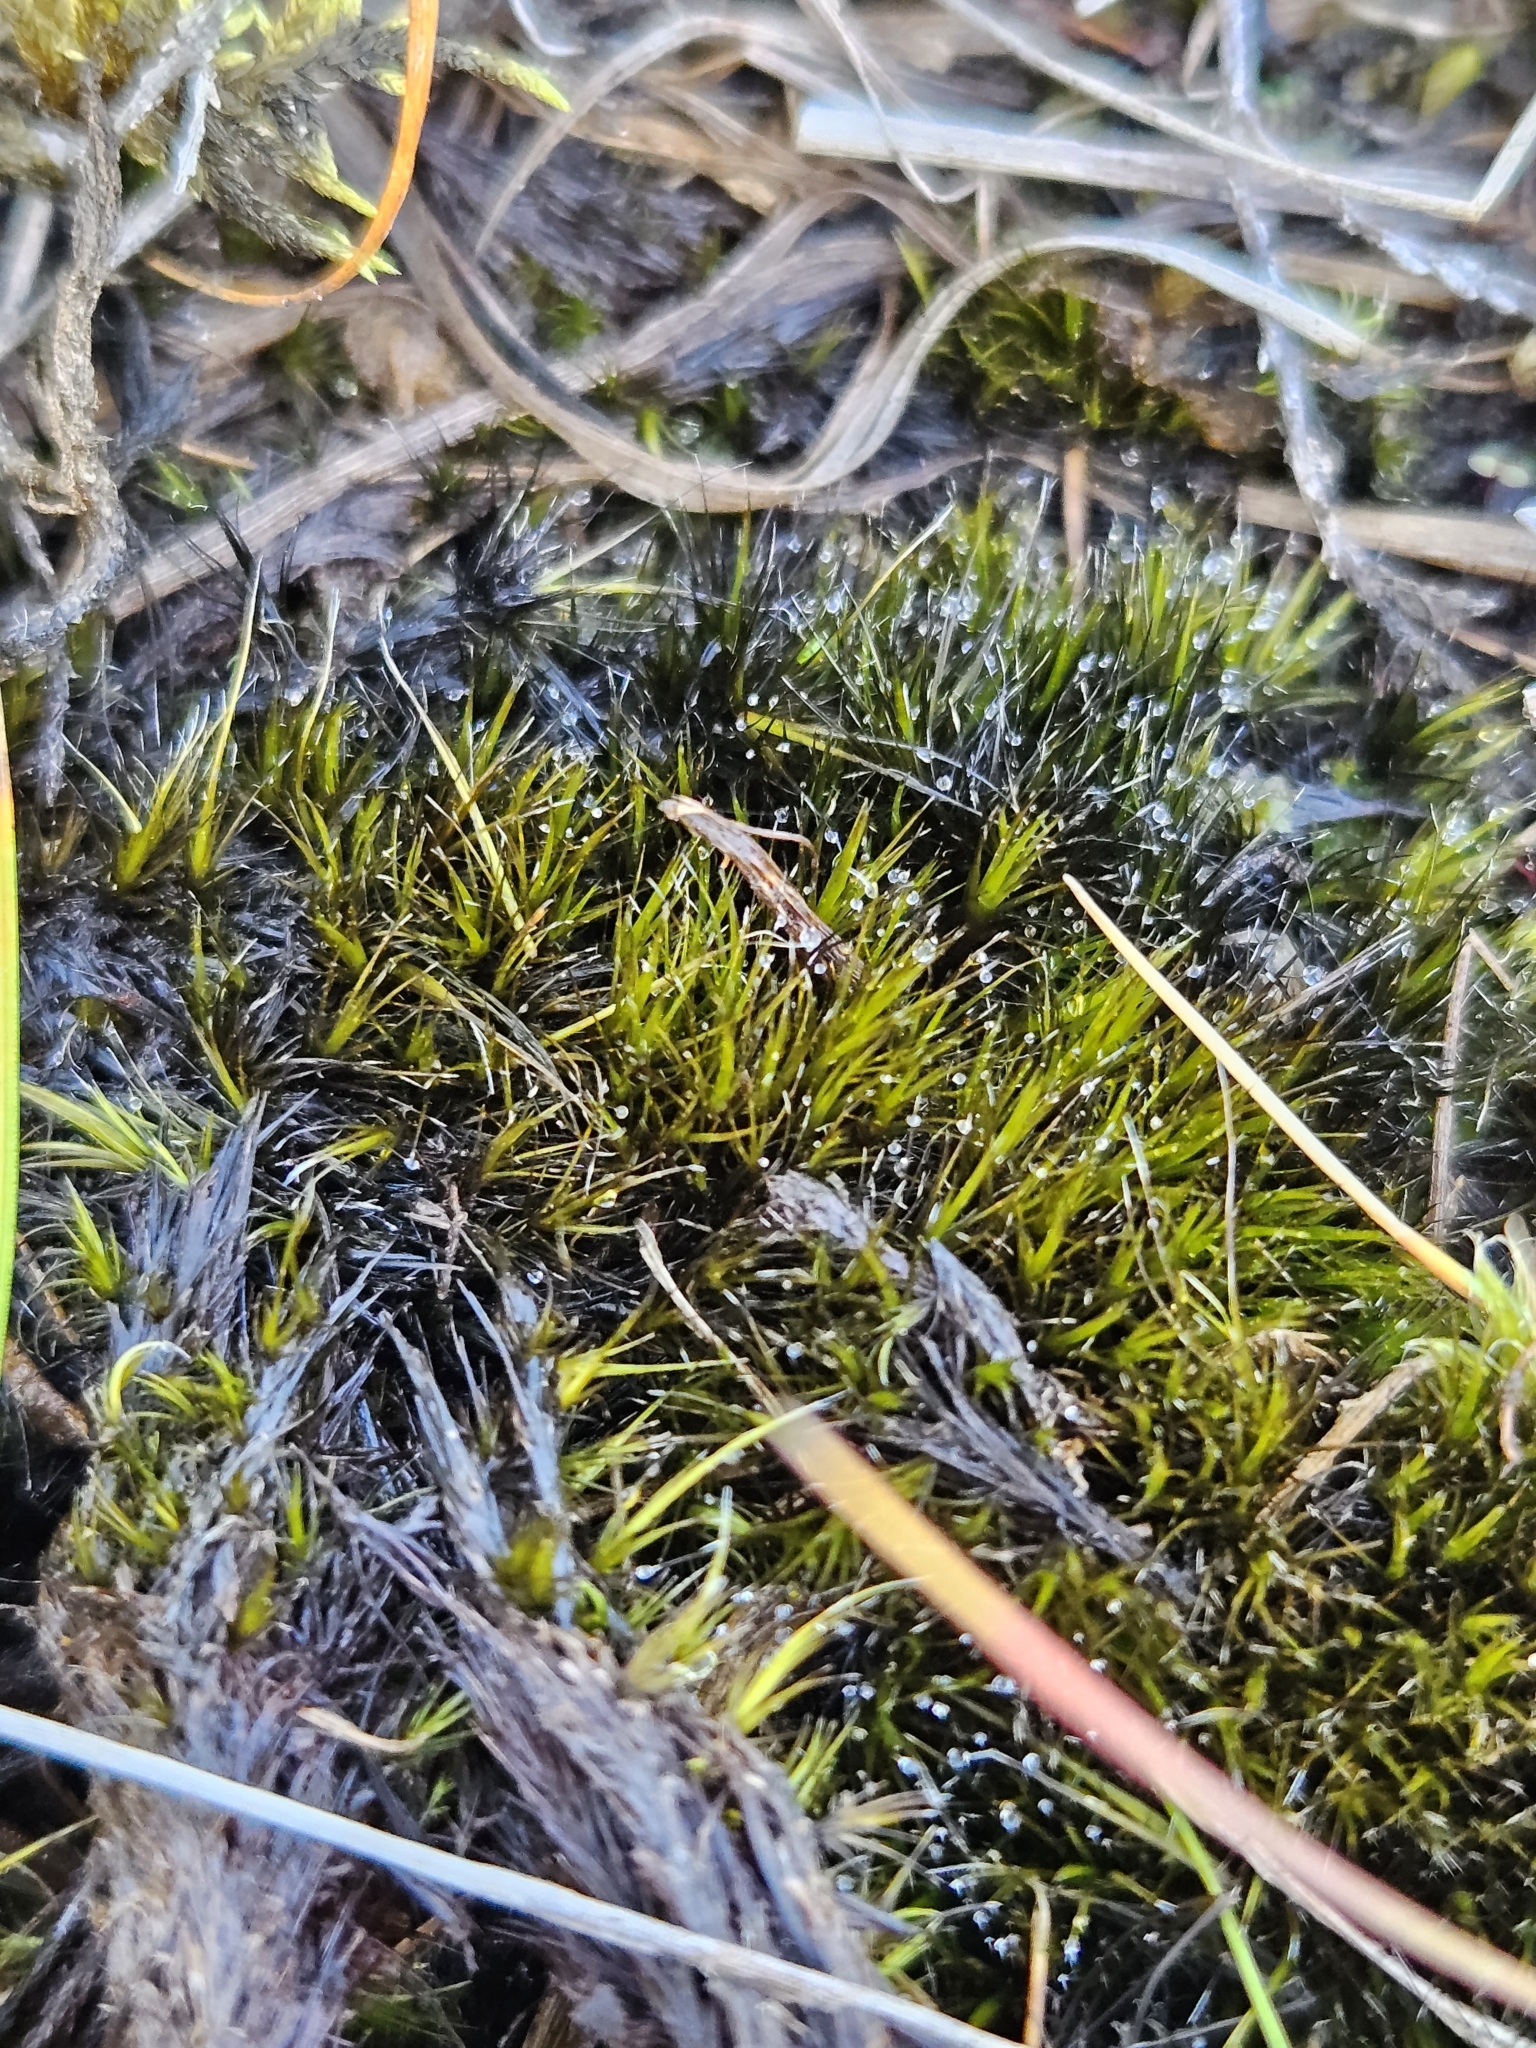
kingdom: Plantae
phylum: Bryophyta
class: Bryopsida
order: Dicranales
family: Leucobryaceae
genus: Campylopus
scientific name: Campylopus atrovirens
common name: Bristly swan-neck moss
